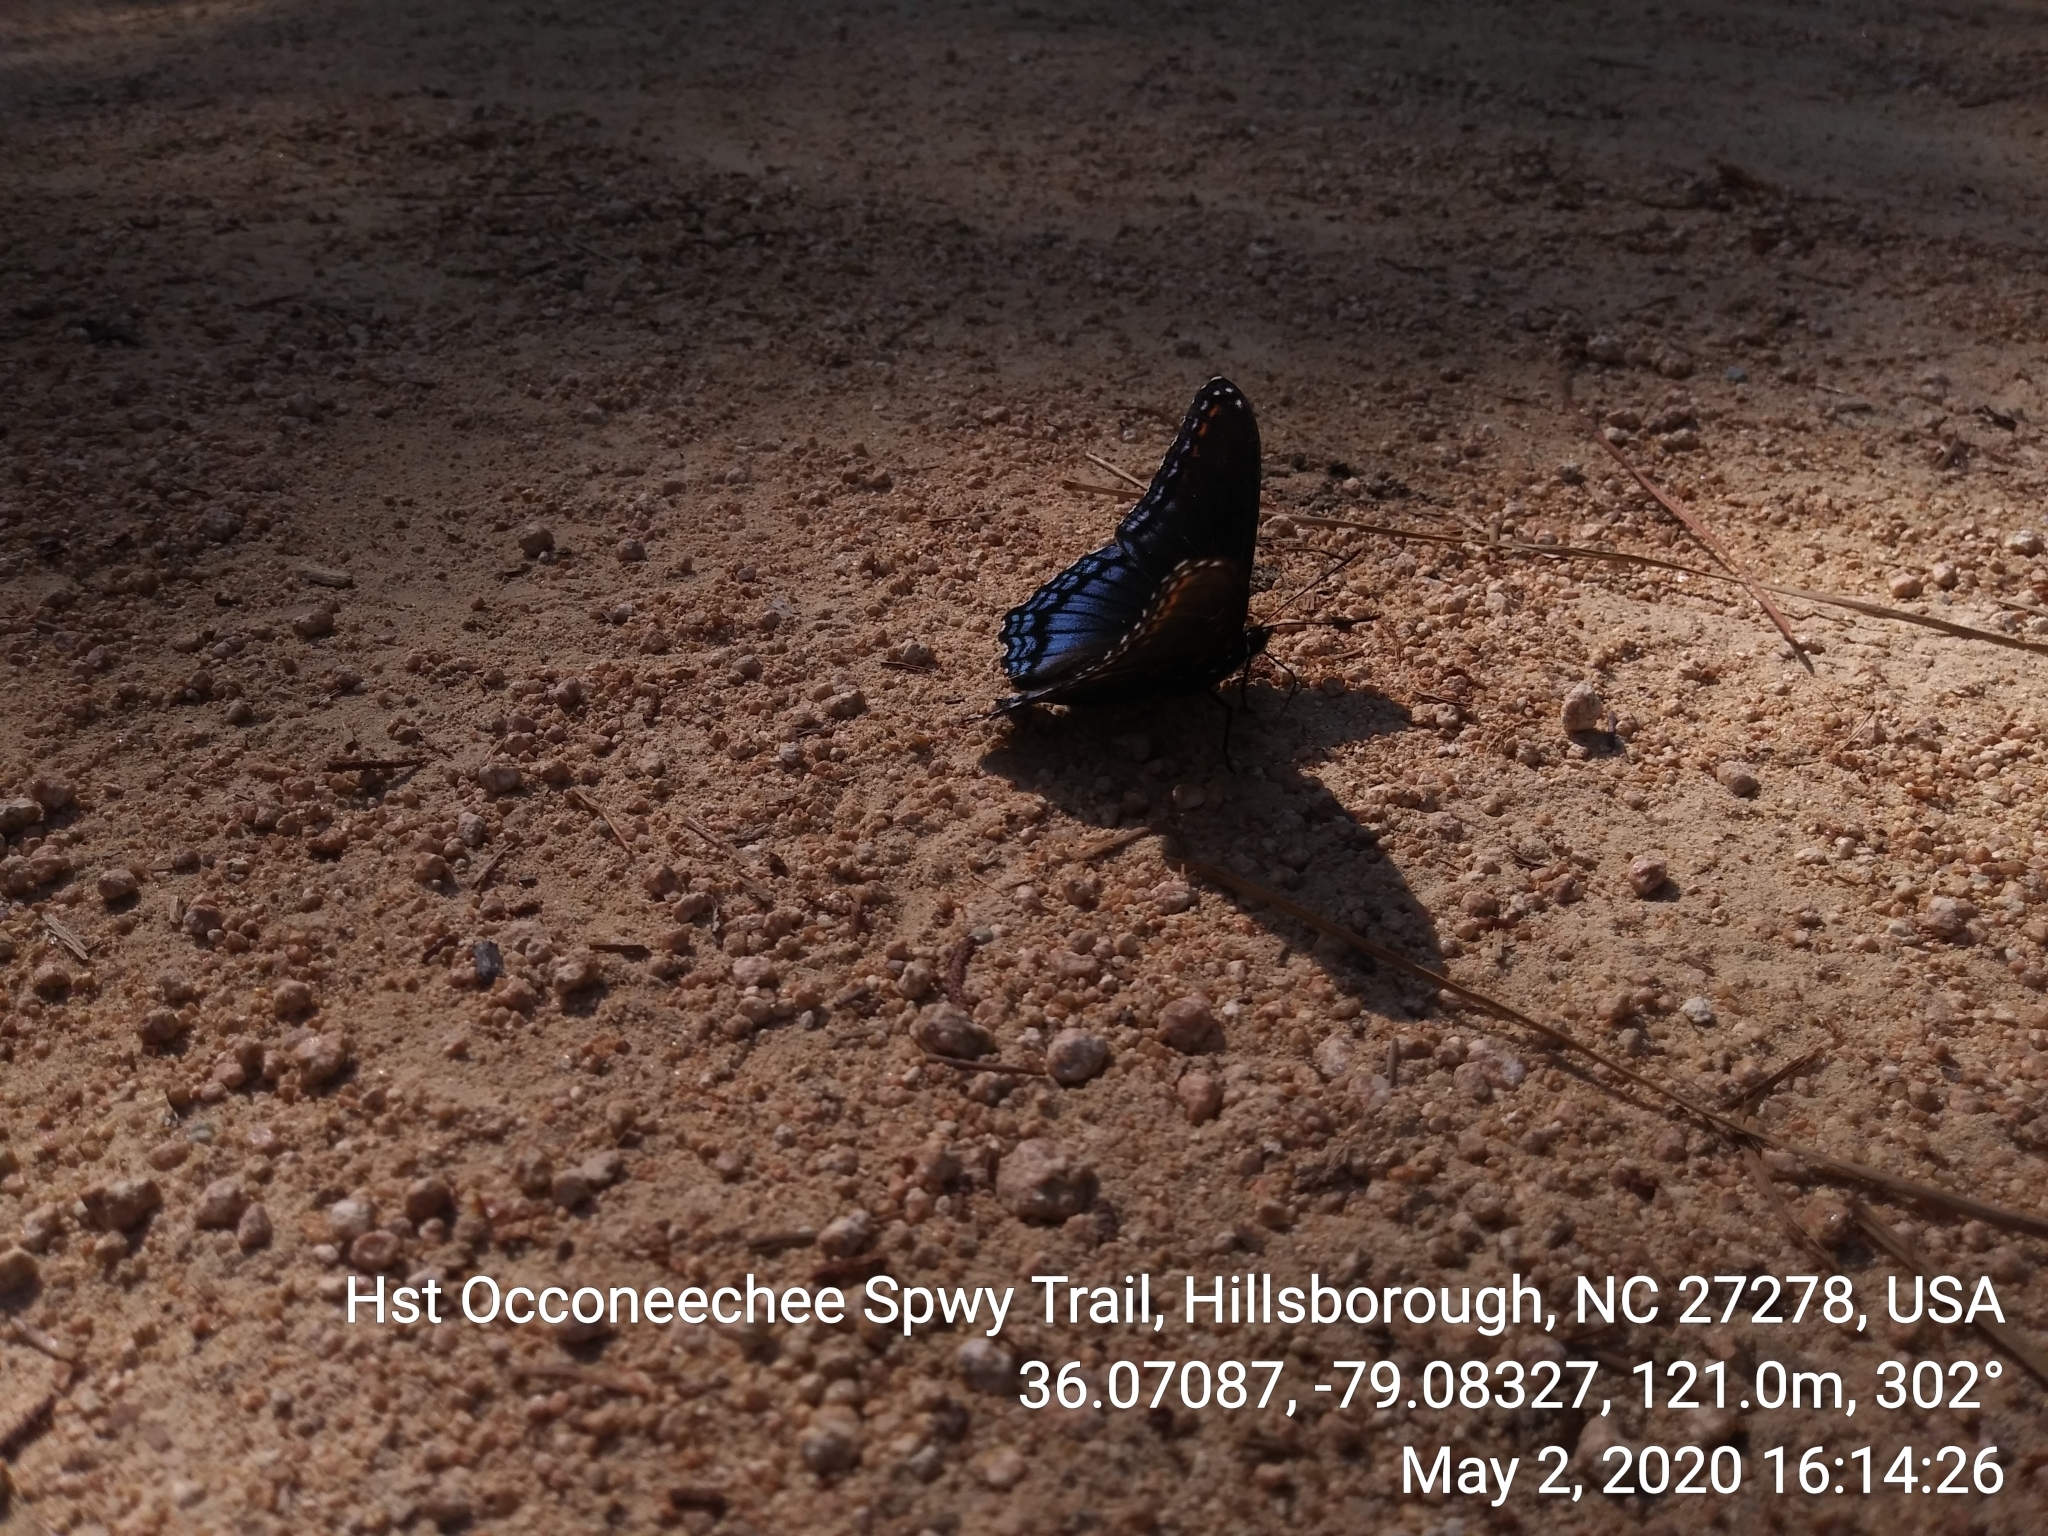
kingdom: Animalia
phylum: Arthropoda
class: Insecta
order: Lepidoptera
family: Nymphalidae
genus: Limenitis
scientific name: Limenitis astyanax
